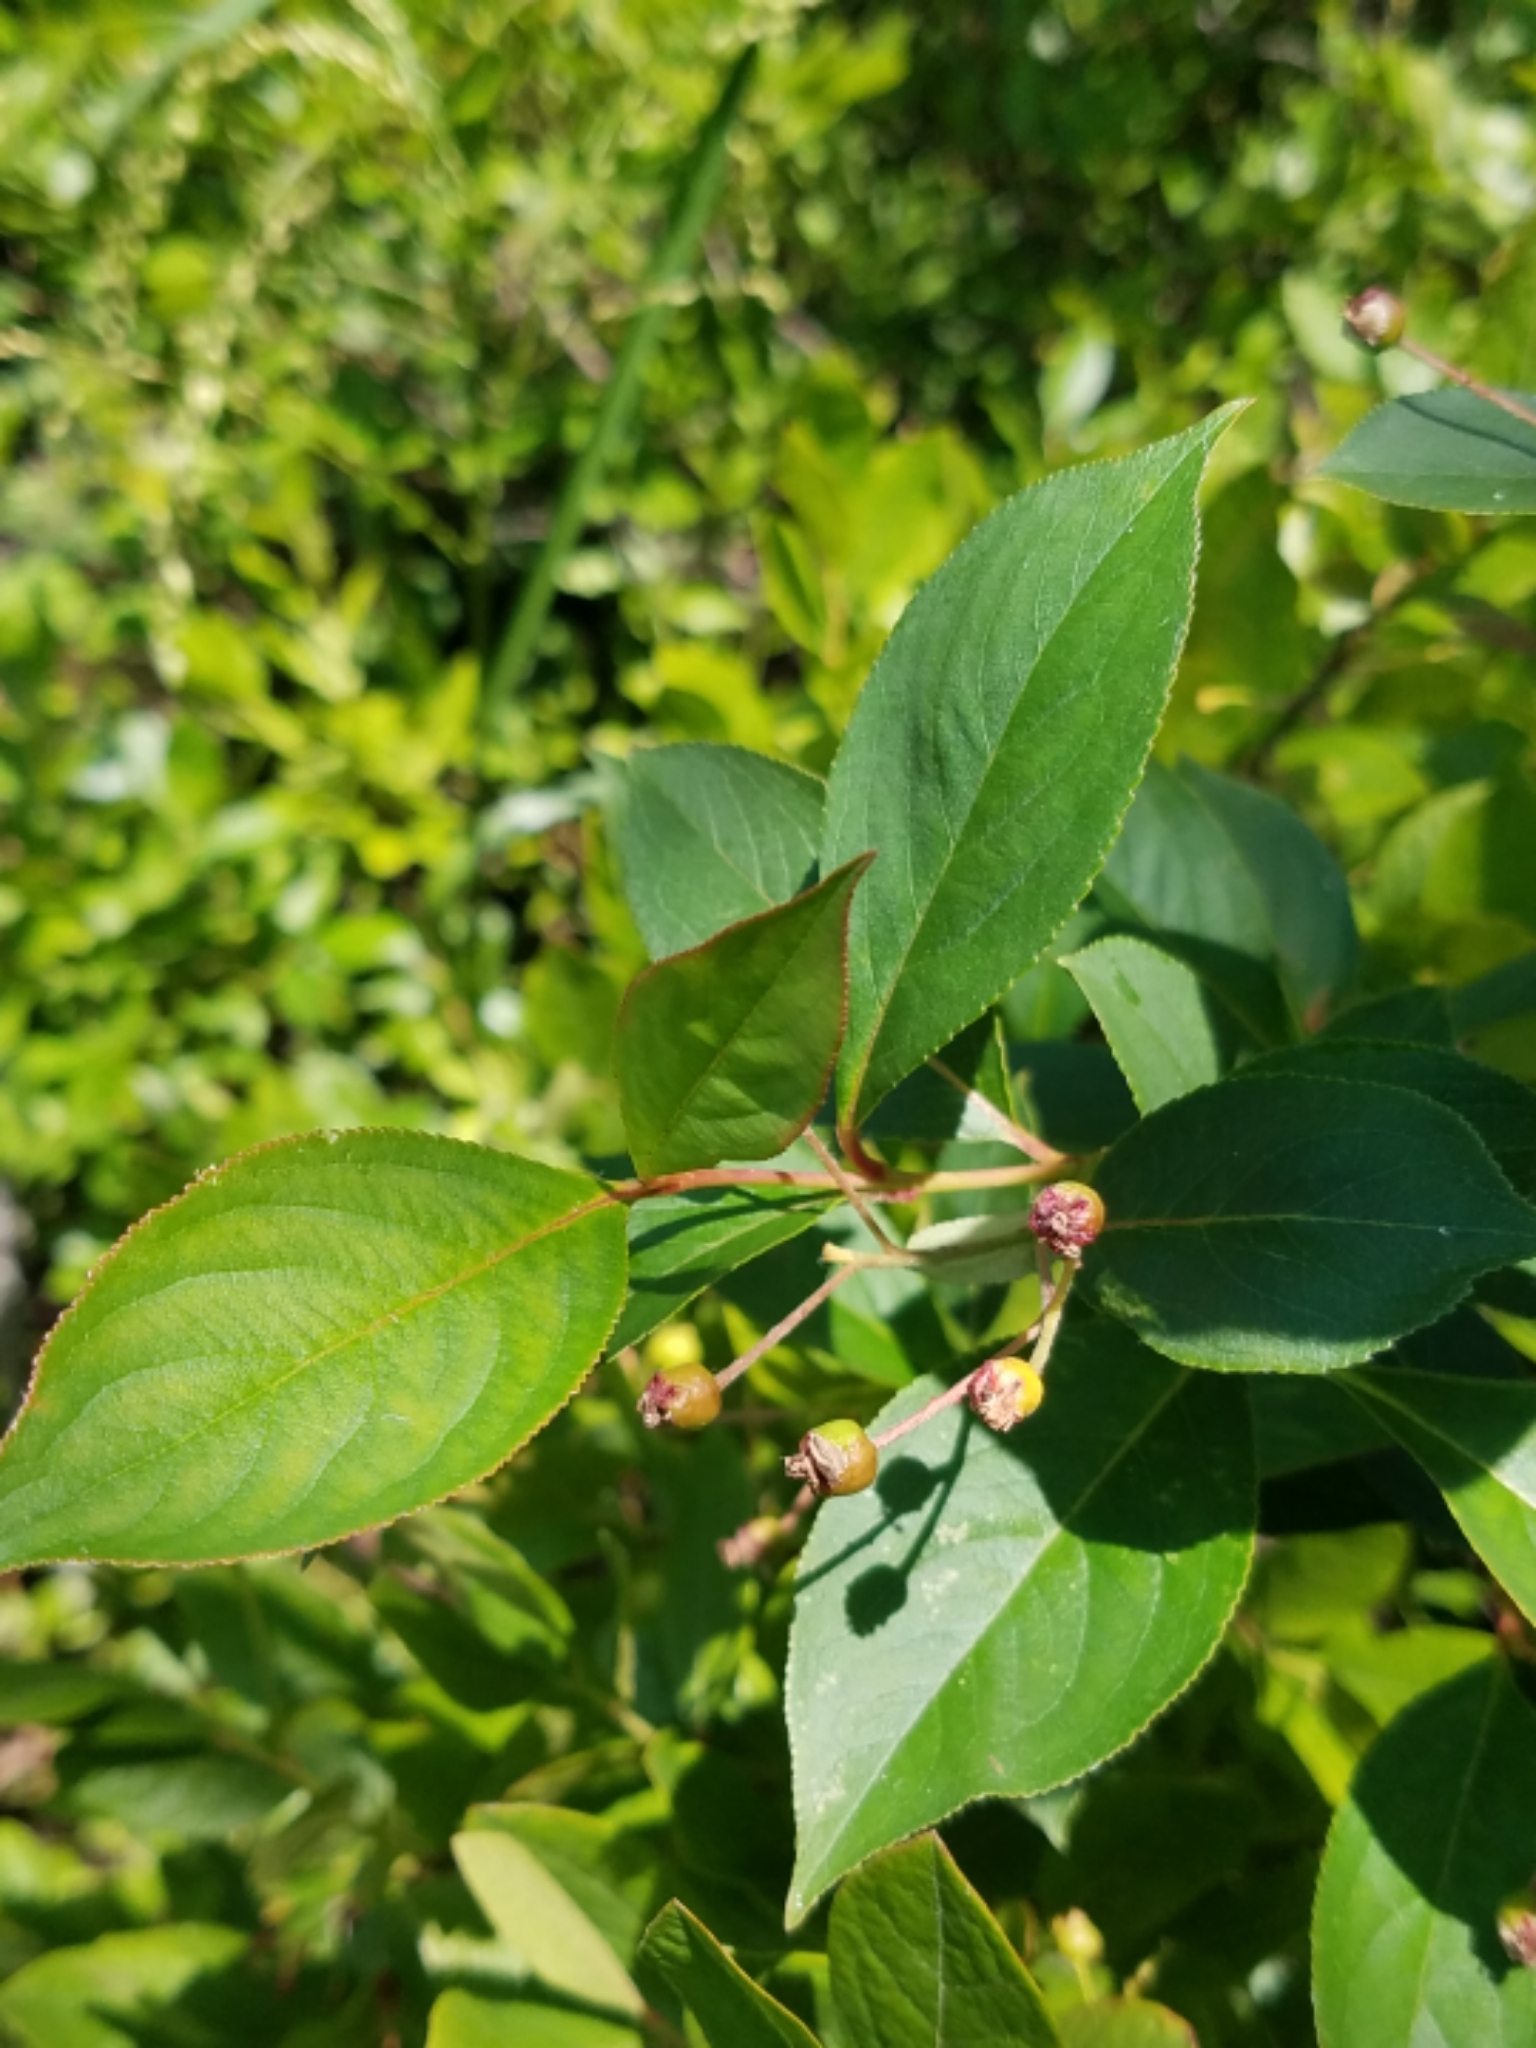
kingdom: Plantae
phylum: Tracheophyta
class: Magnoliopsida
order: Rosales
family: Rosaceae
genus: Aronia
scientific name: Aronia melanocarpa
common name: Black chokeberry
